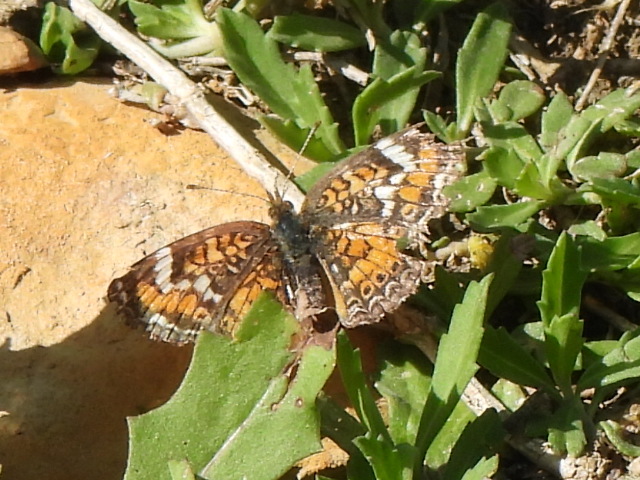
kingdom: Animalia
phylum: Arthropoda
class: Insecta
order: Lepidoptera
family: Nymphalidae
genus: Phyciodes
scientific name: Phyciodes phaon
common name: Phaon crescent
